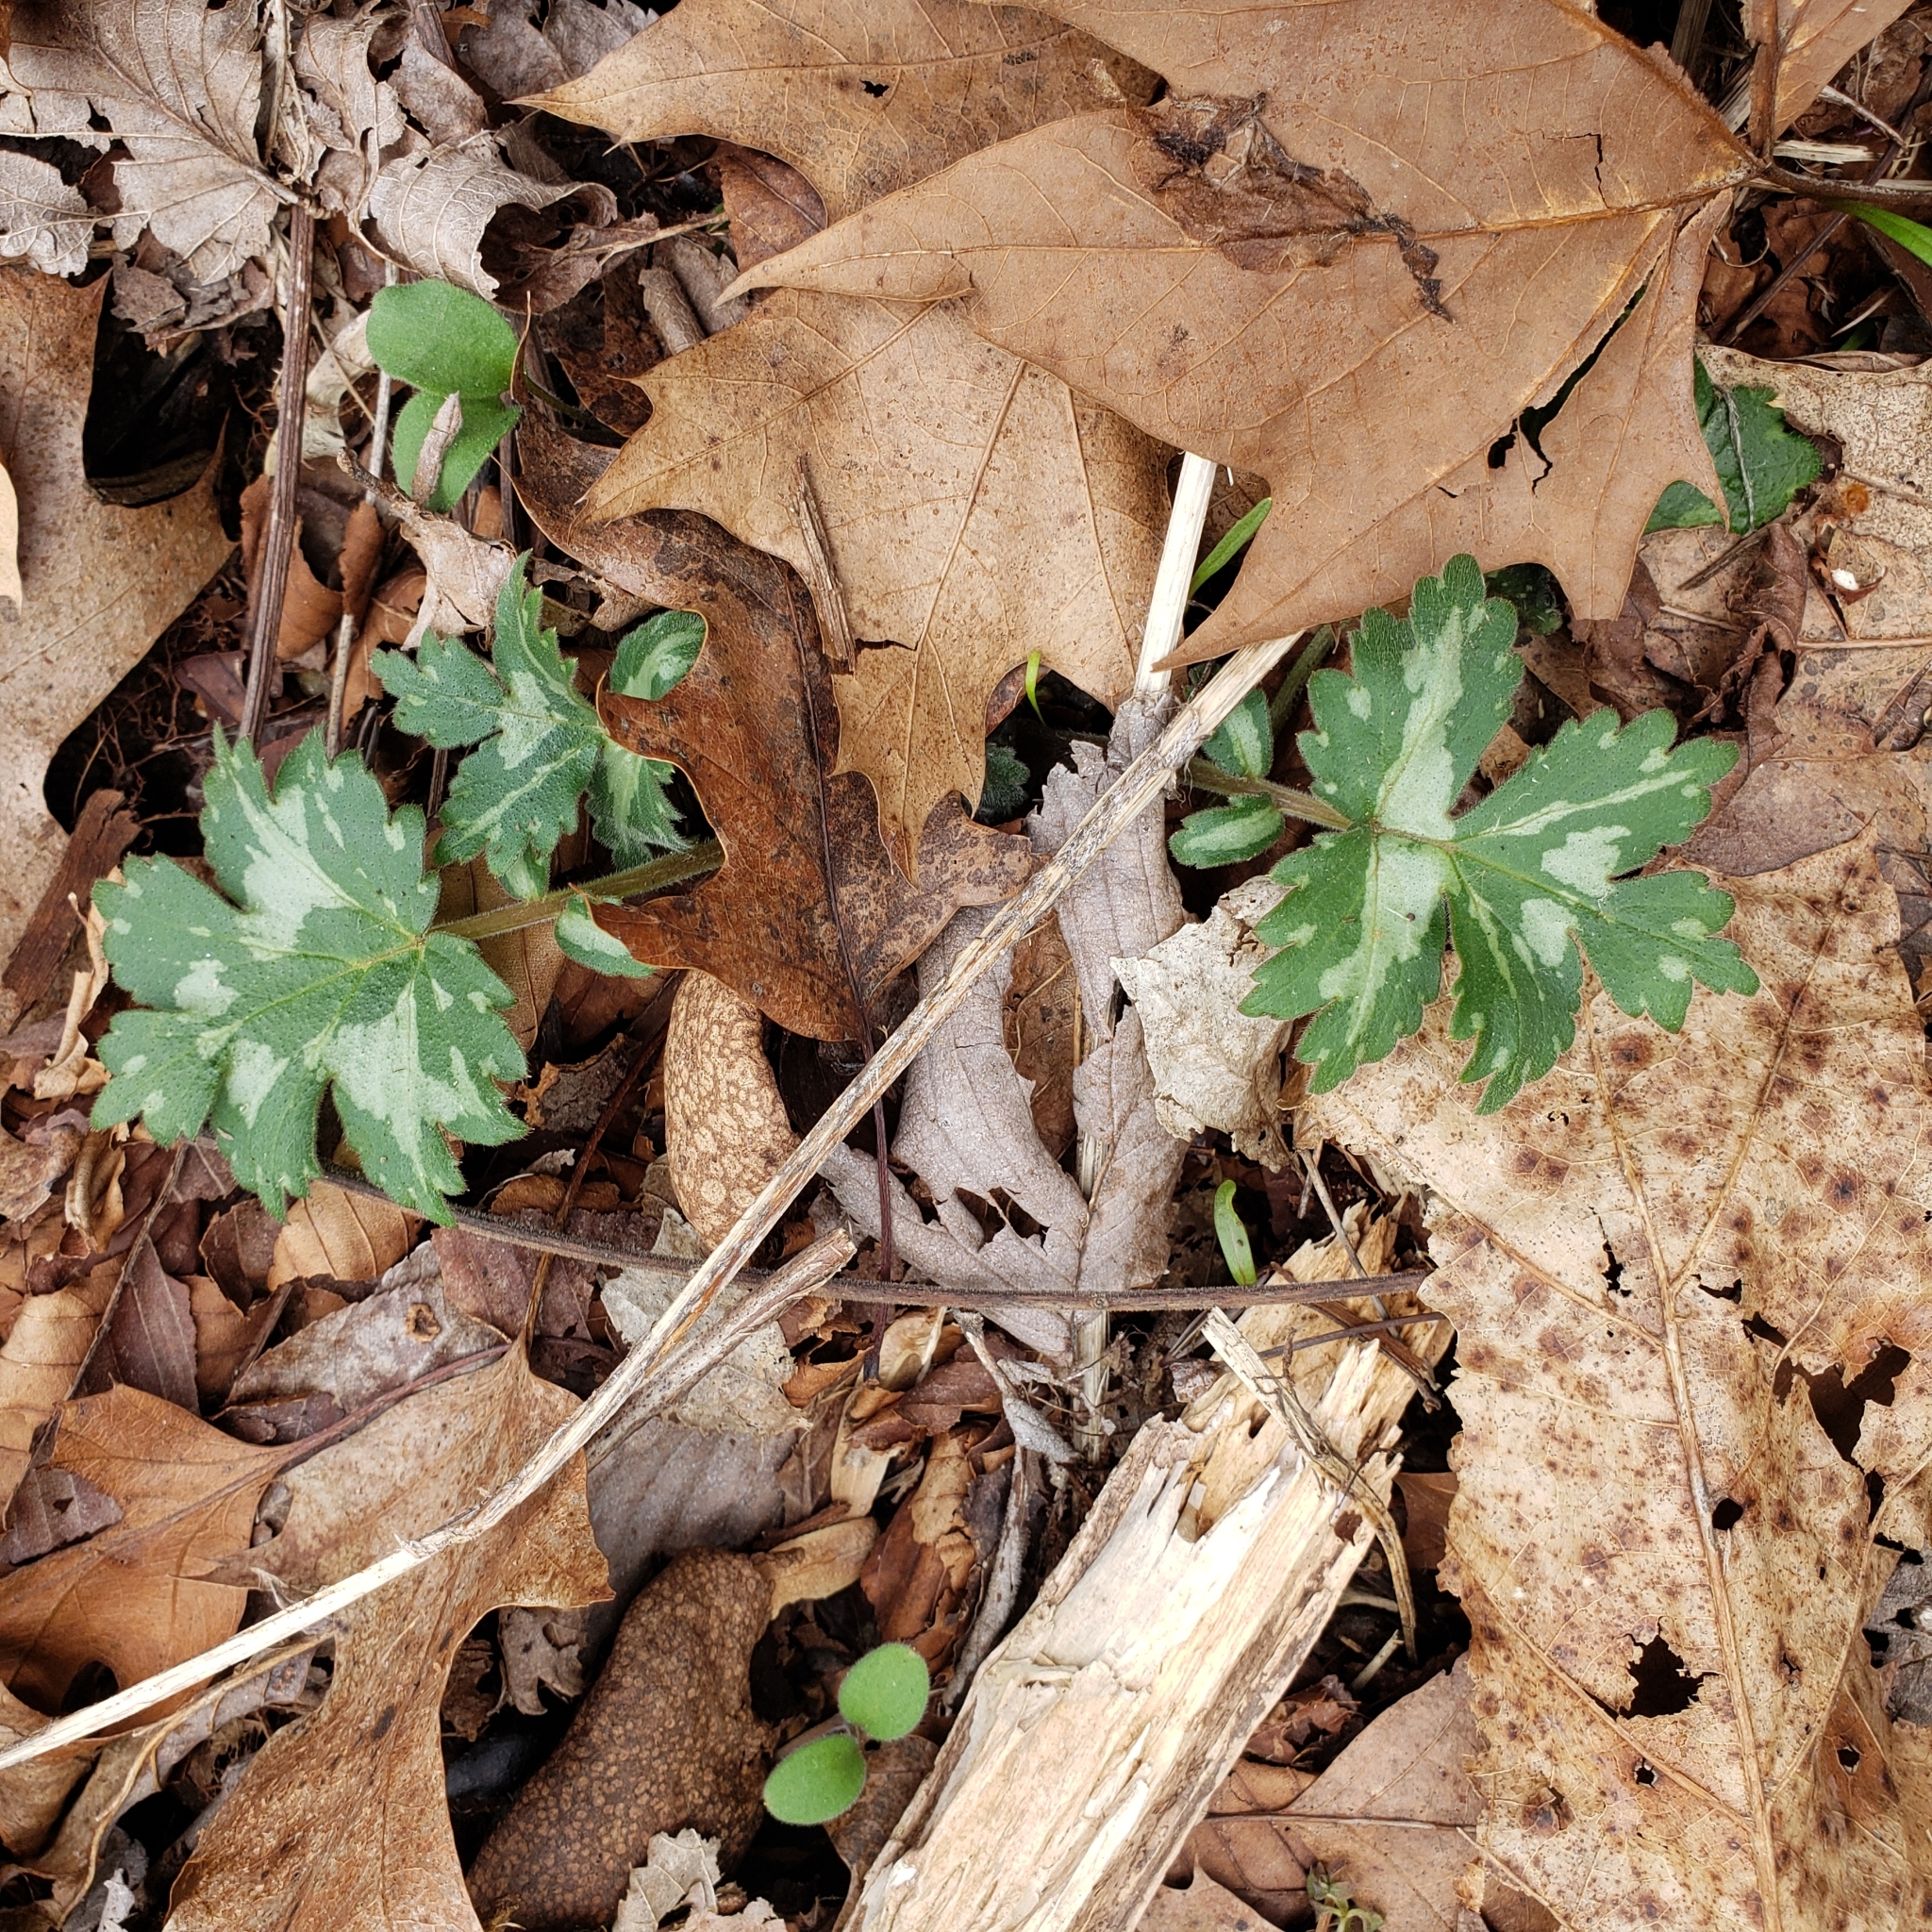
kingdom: Plantae
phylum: Tracheophyta
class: Magnoliopsida
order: Boraginales
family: Hydrophyllaceae
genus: Hydrophyllum
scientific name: Hydrophyllum appendiculatum
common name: Appendaged waterleaf
